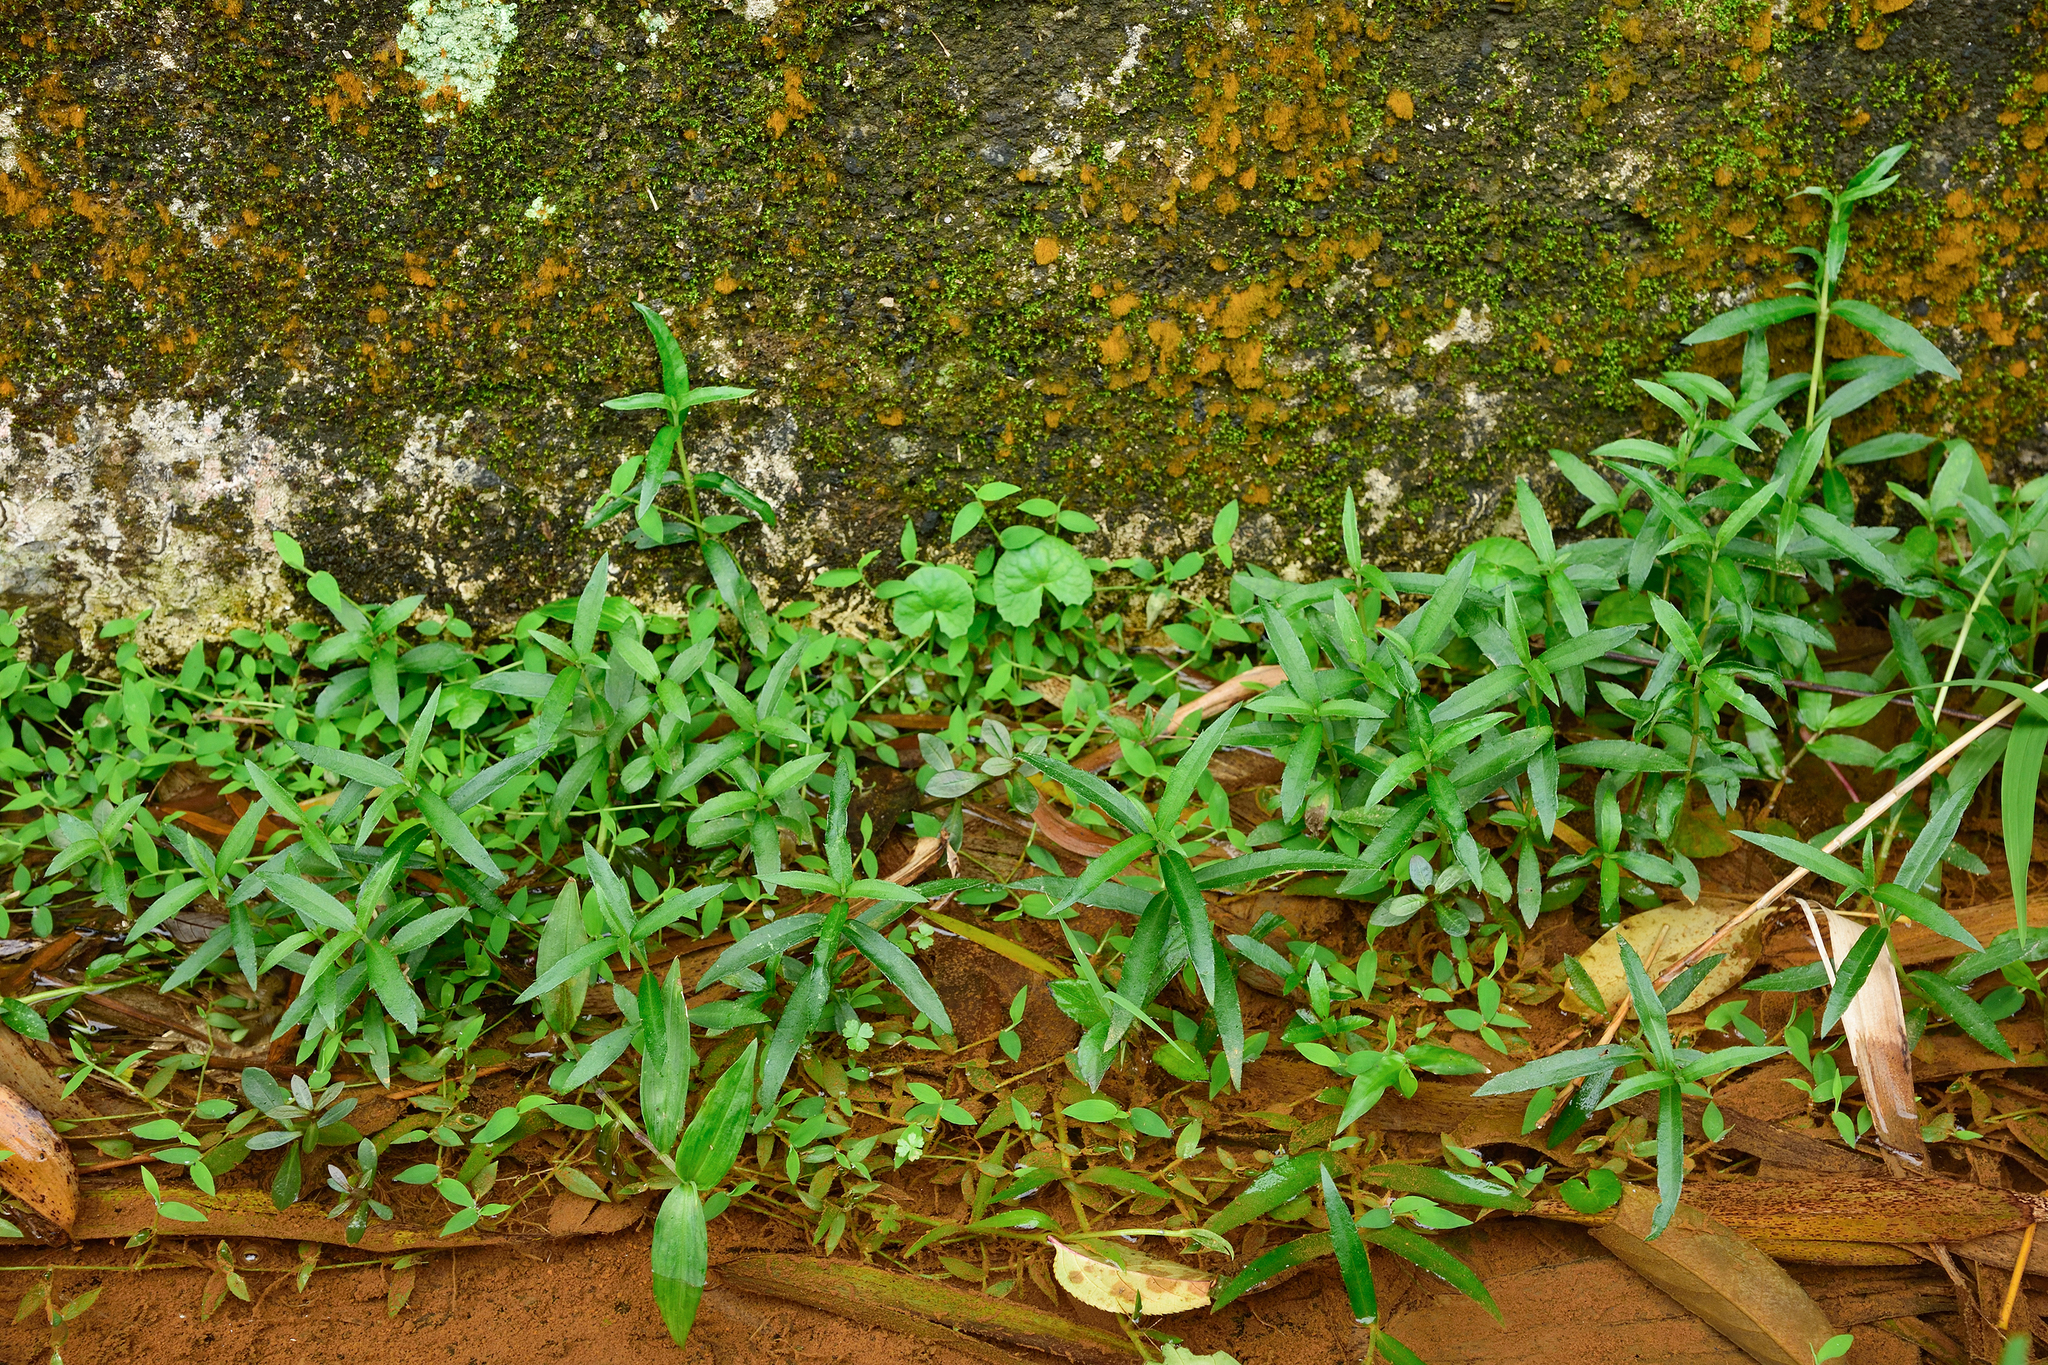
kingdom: Plantae
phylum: Tracheophyta
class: Magnoliopsida
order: Asterales
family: Asteraceae
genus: Sphagneticola
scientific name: Sphagneticola calendulacea
